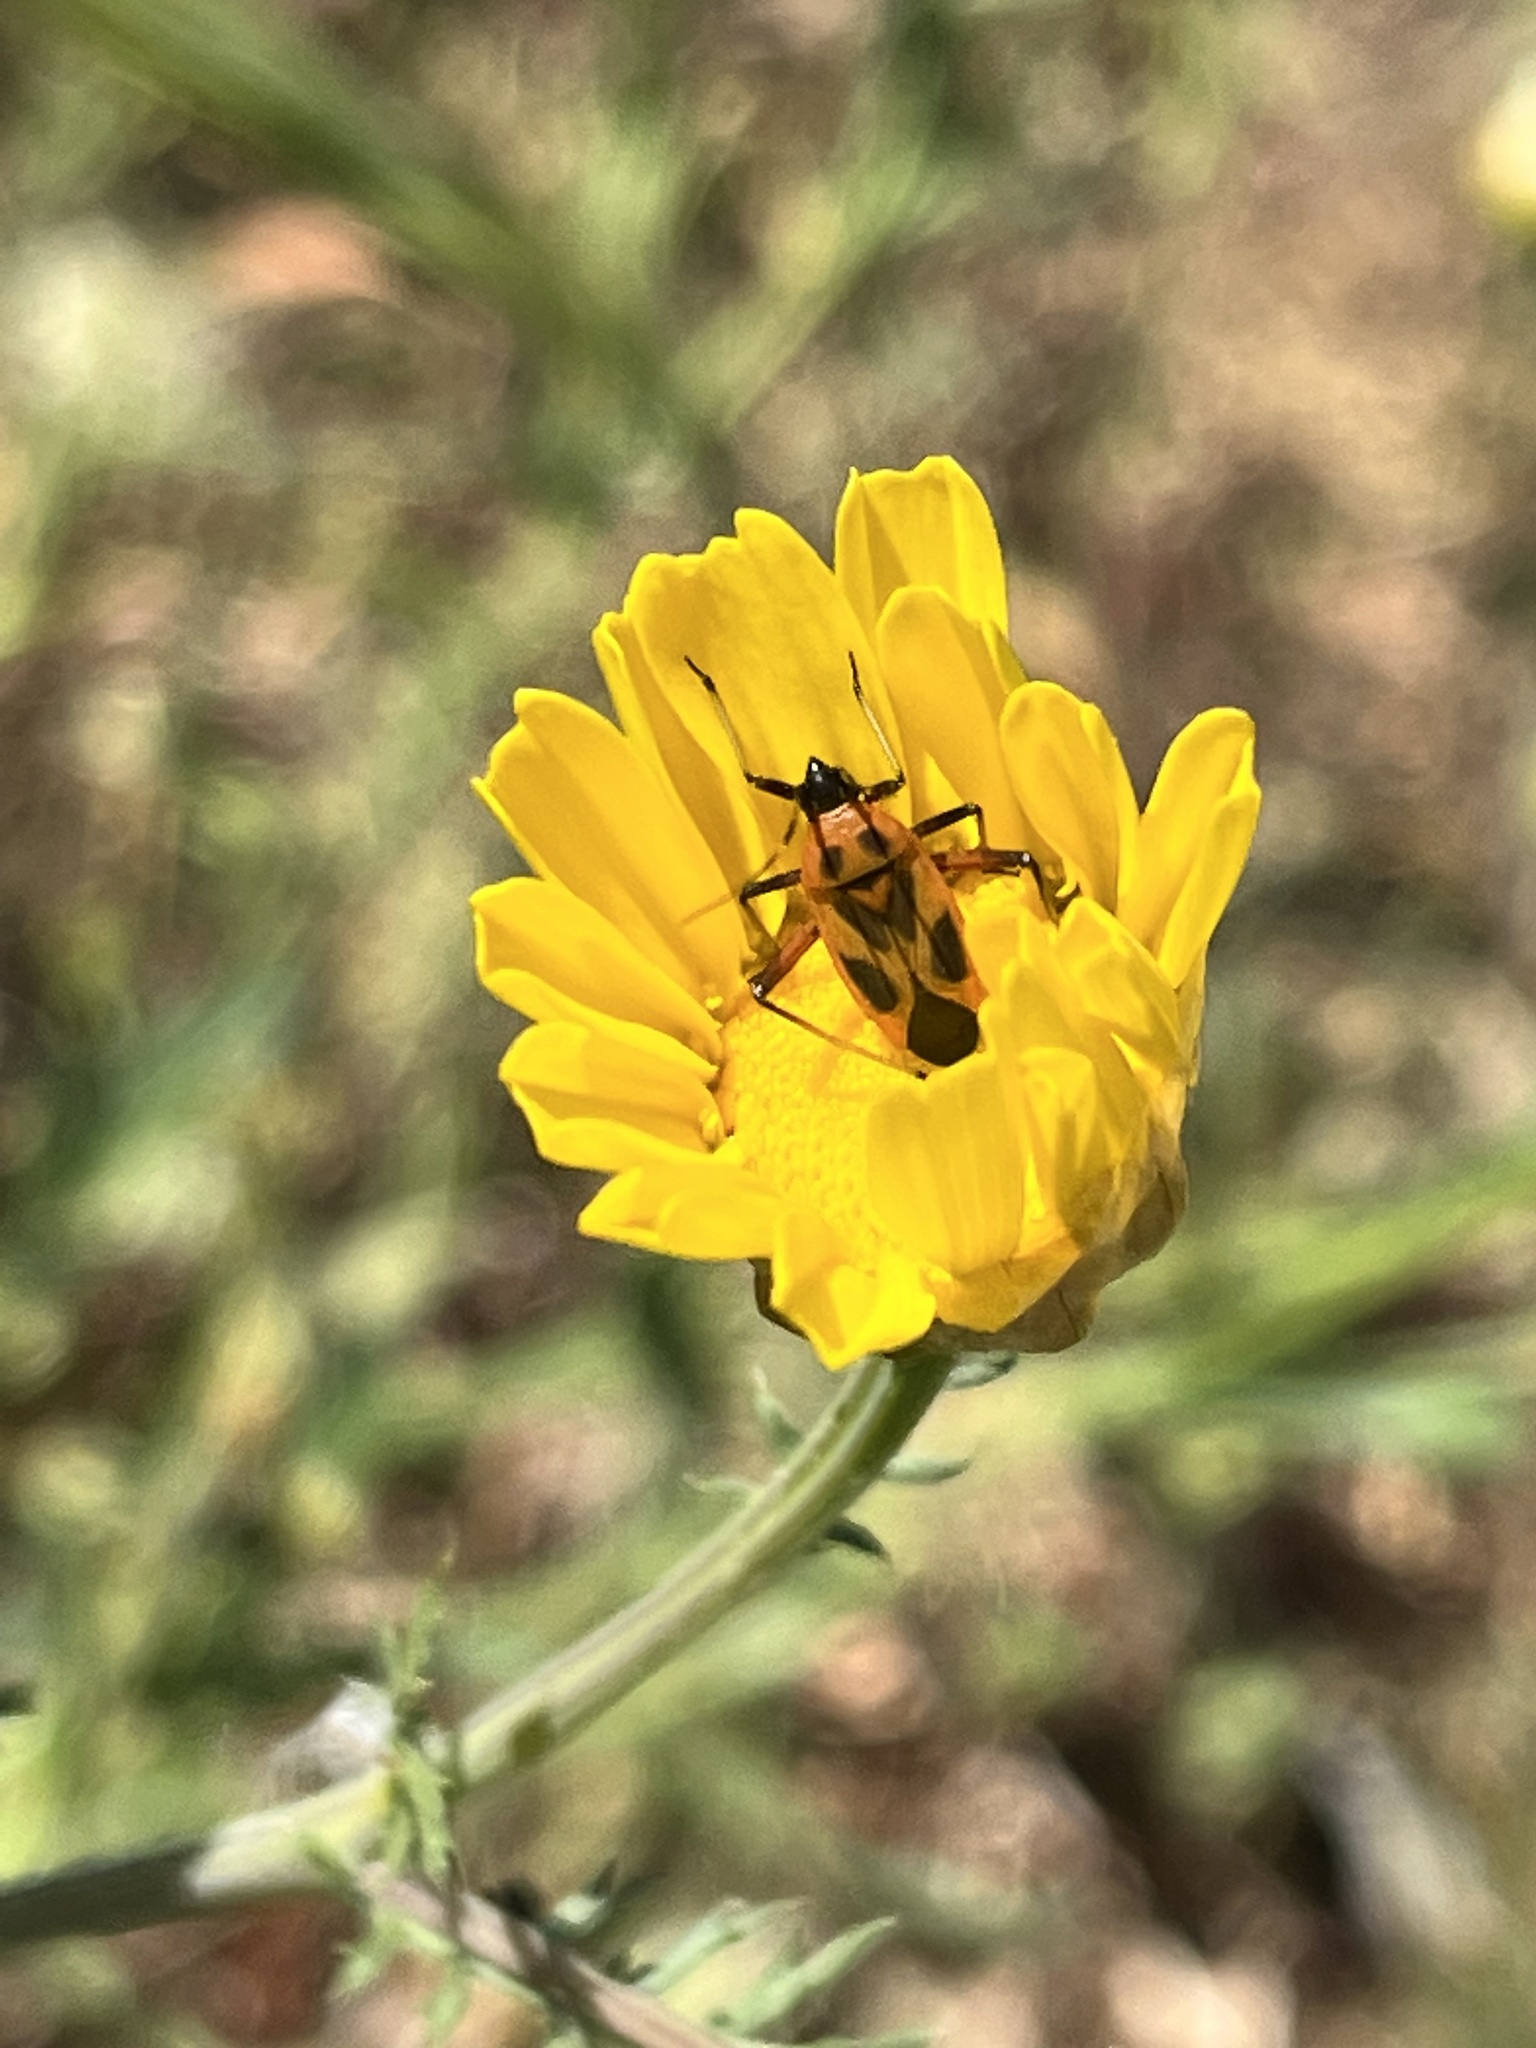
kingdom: Animalia
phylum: Arthropoda
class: Insecta
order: Hemiptera
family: Miridae
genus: Calocoris
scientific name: Calocoris nemoralis
